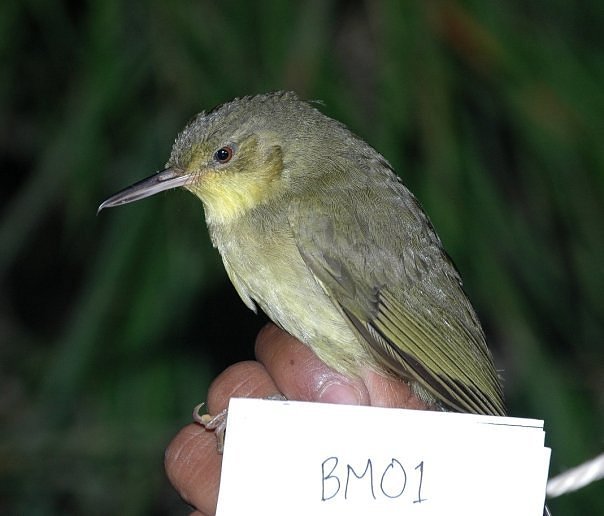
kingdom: Animalia
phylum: Chordata
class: Aves
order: Passeriformes
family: Bernieridae
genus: Bernieria
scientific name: Bernieria madagascariensis
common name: Long-billed bernieria
